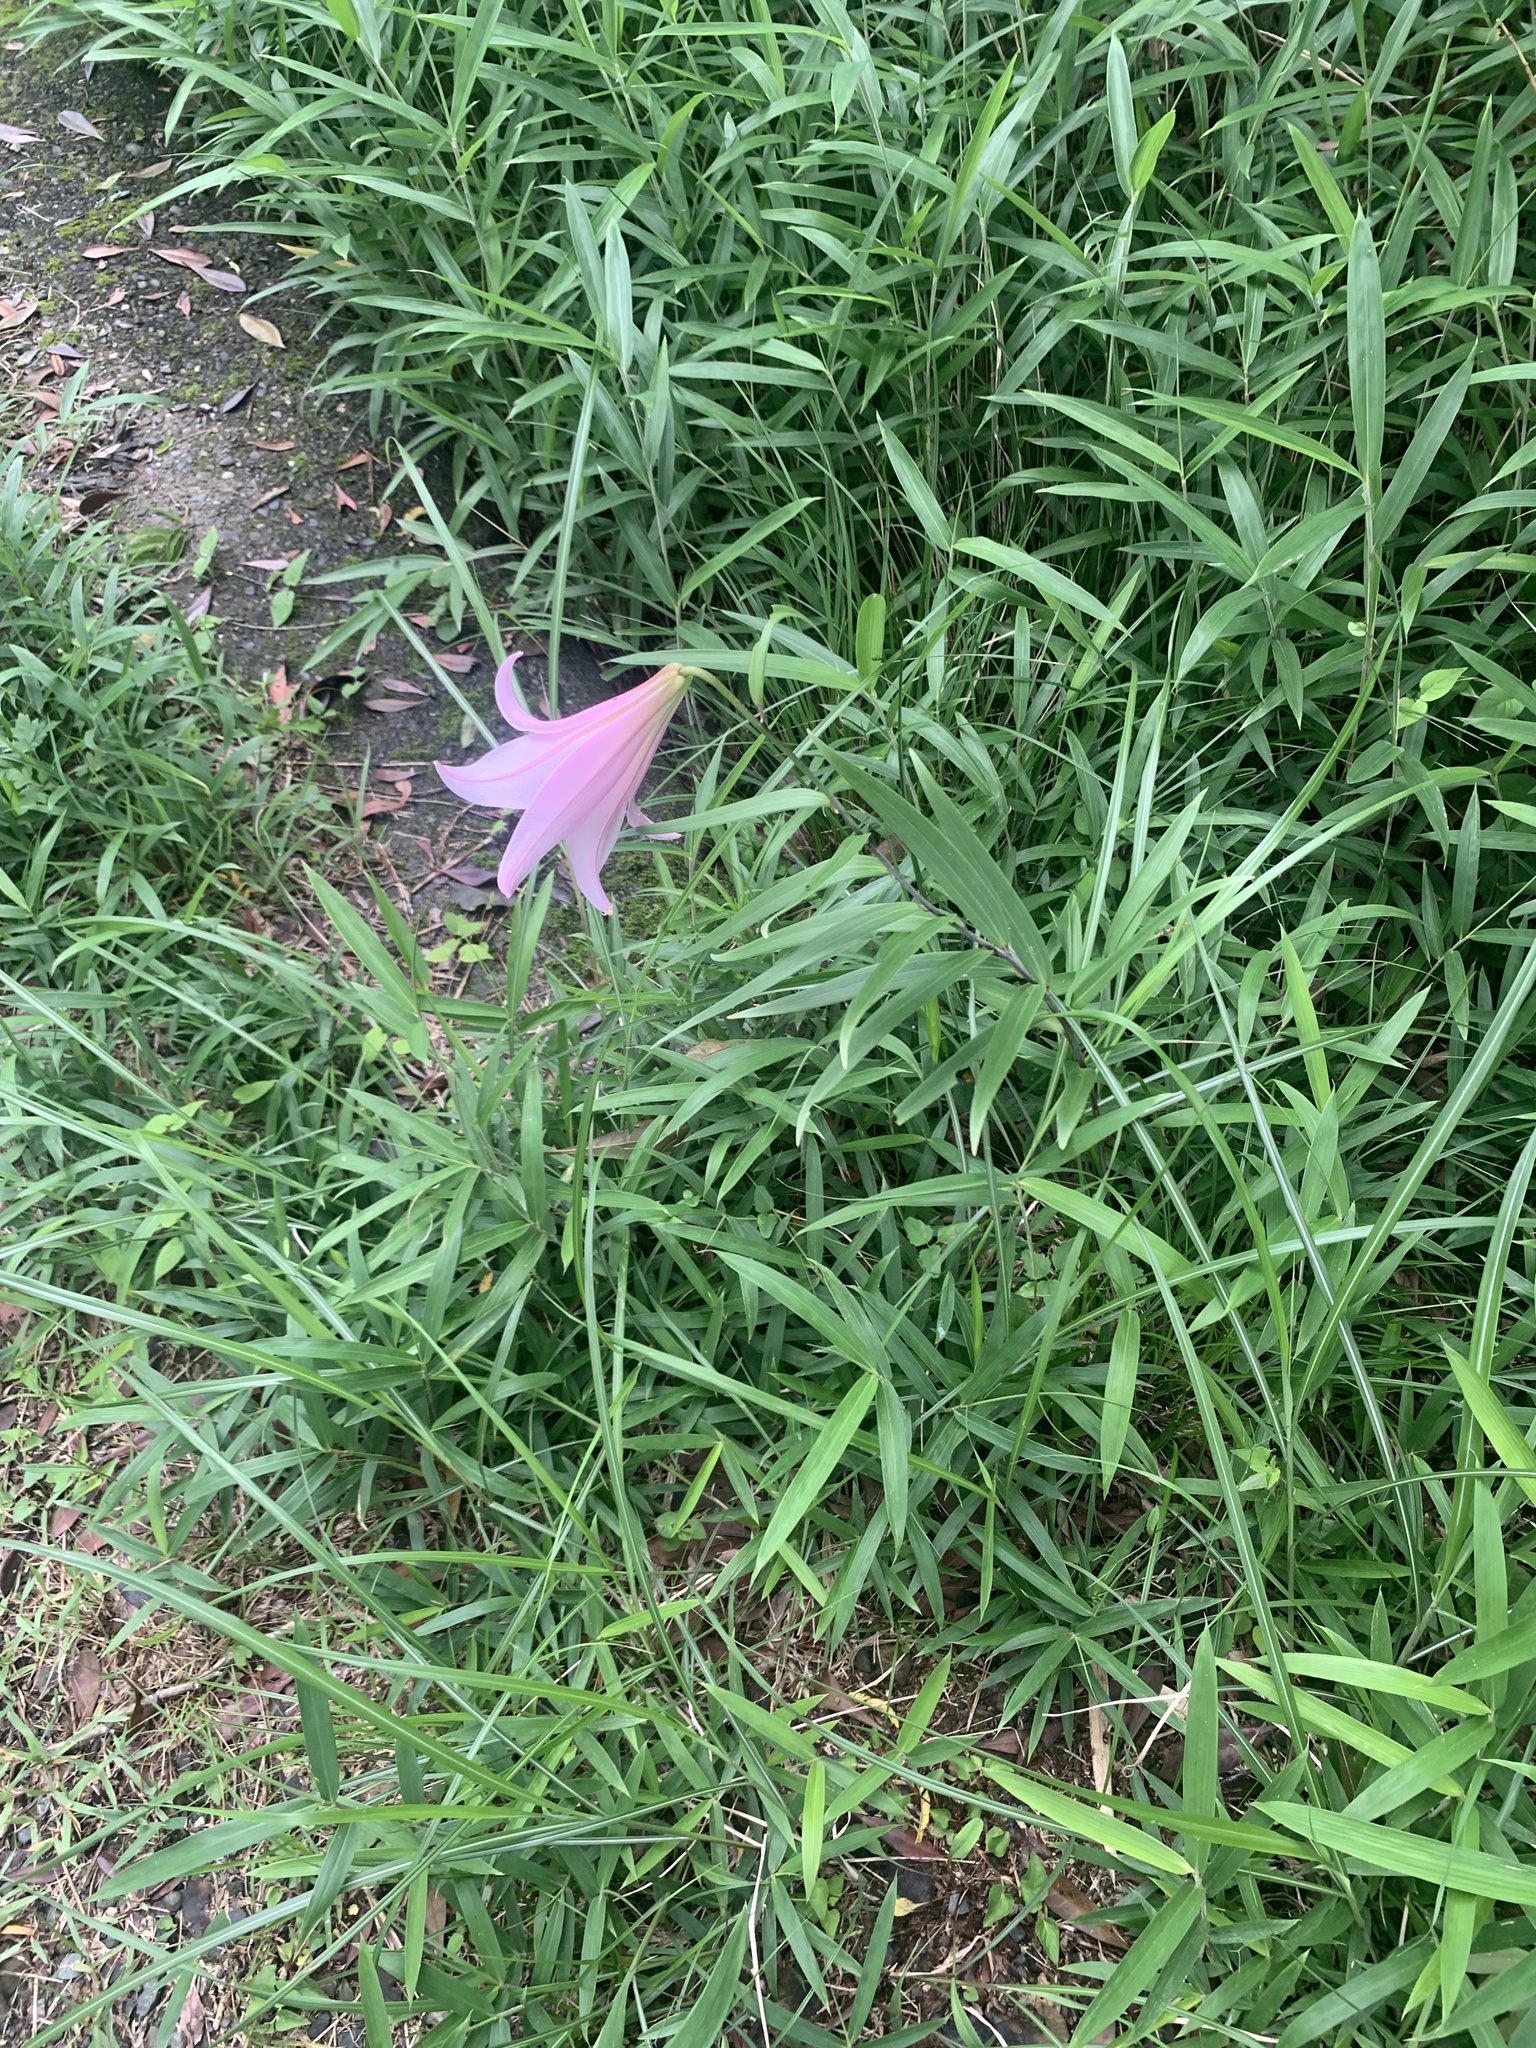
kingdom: Plantae
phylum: Tracheophyta
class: Liliopsida
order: Liliales
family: Liliaceae
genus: Lilium
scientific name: Lilium japonicum
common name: Japanese lily
